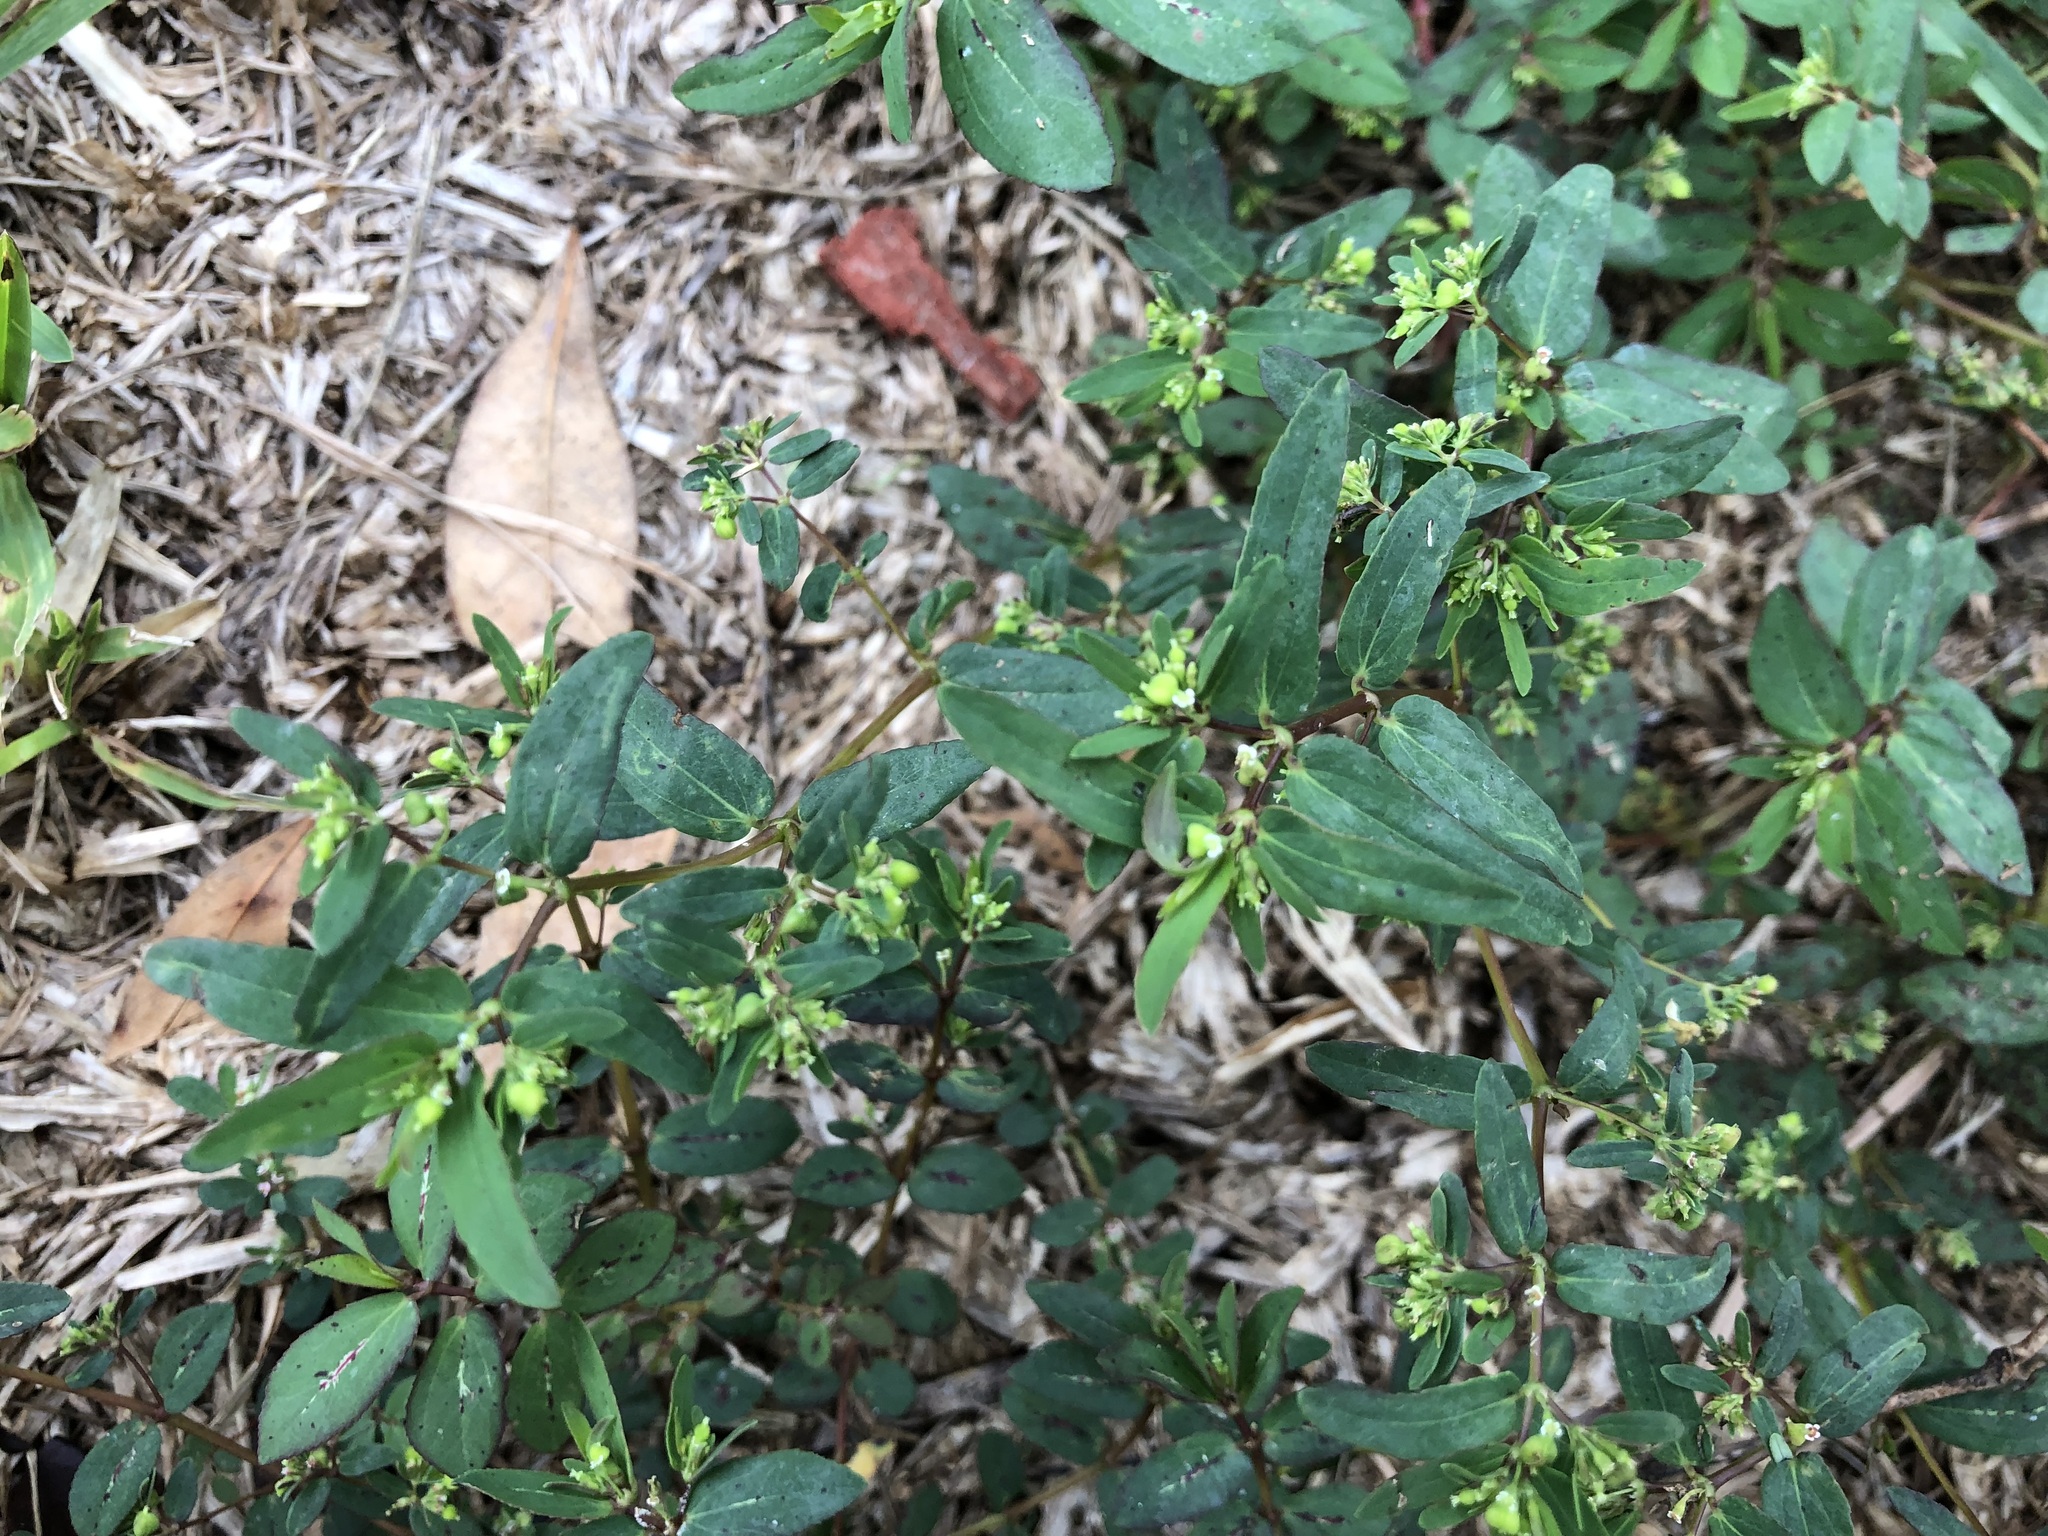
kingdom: Plantae
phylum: Tracheophyta
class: Magnoliopsida
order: Malpighiales
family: Euphorbiaceae
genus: Euphorbia
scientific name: Euphorbia hyssopifolia
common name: Hyssopleaf sandmat
